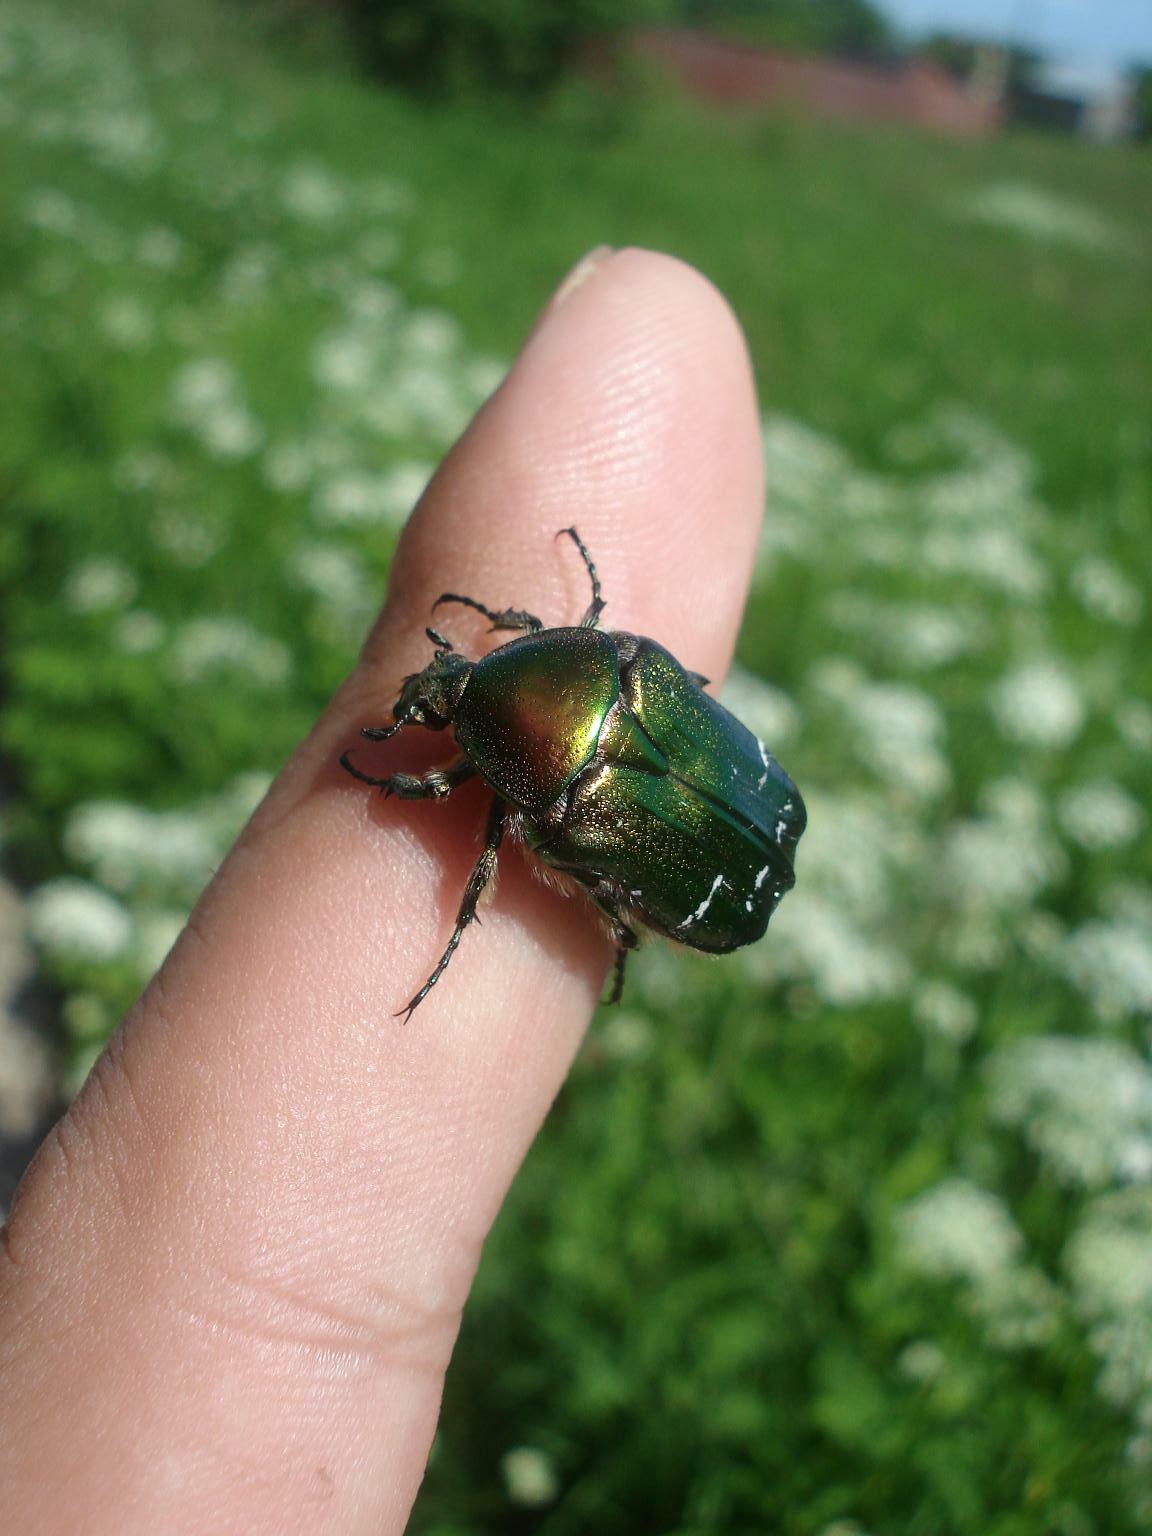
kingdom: Animalia
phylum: Arthropoda
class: Insecta
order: Coleoptera
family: Scarabaeidae
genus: Cetonia
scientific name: Cetonia aurata
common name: Rose chafer
